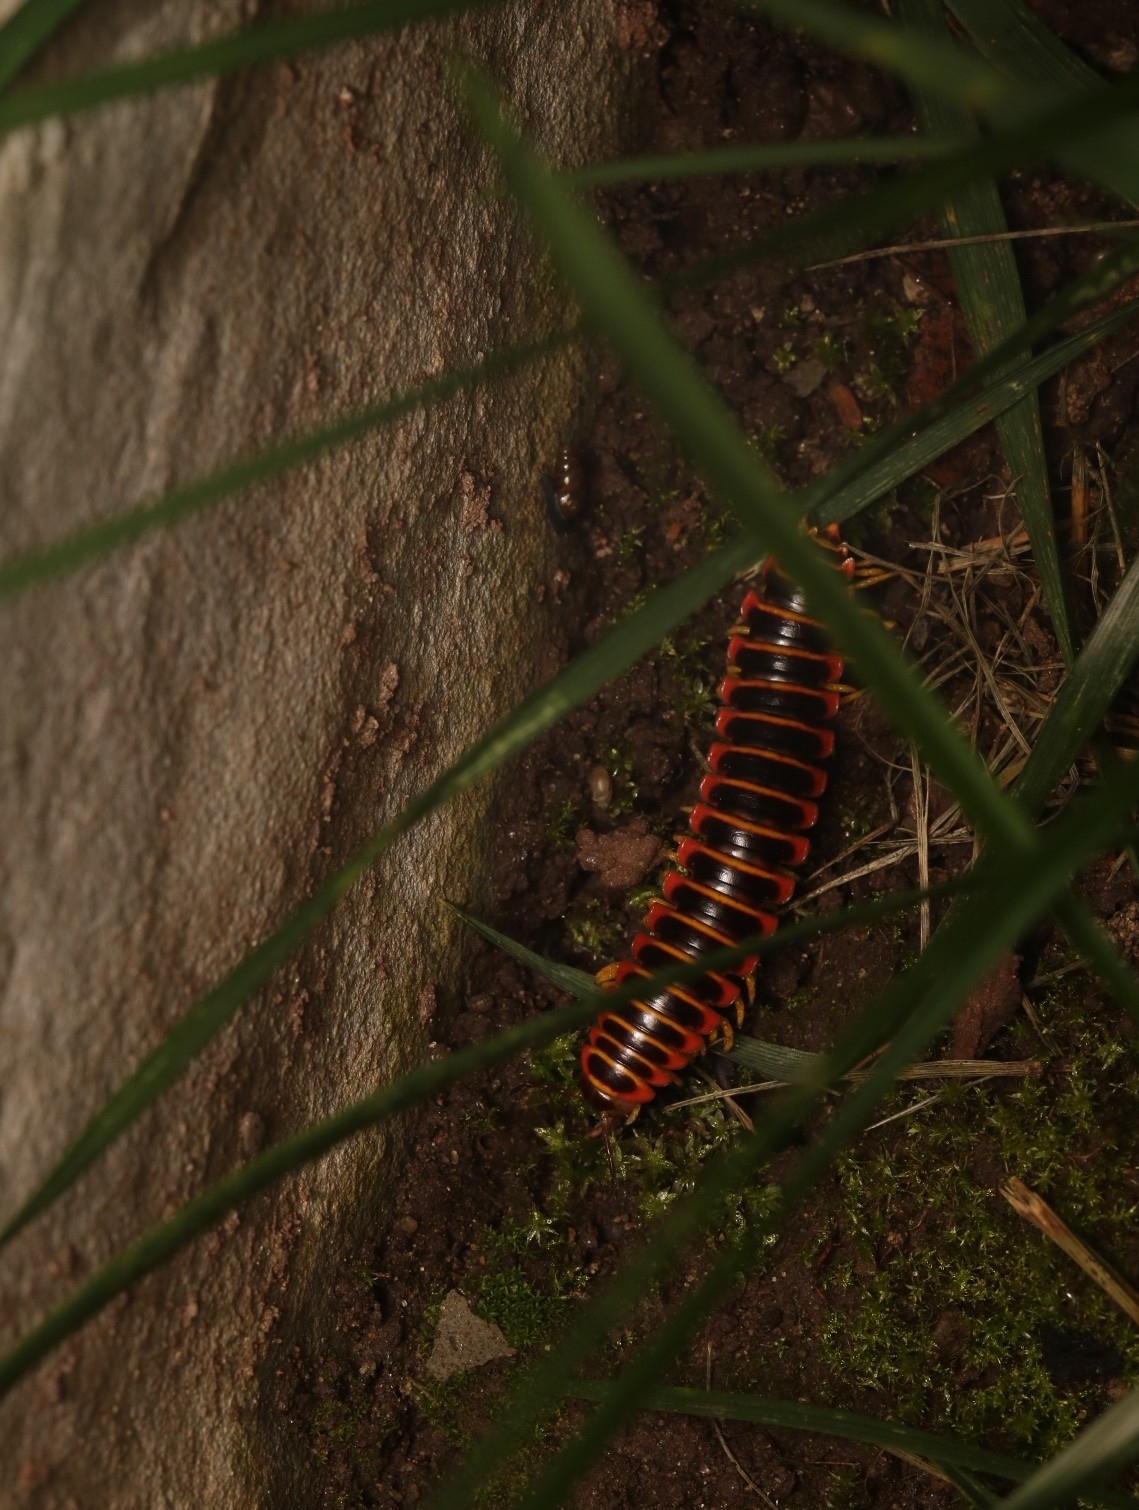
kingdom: Animalia
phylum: Arthropoda
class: Diplopoda
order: Polydesmida
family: Xystodesmidae
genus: Apheloria
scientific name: Apheloria virginiensis
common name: Black-and-gold flat millipede
